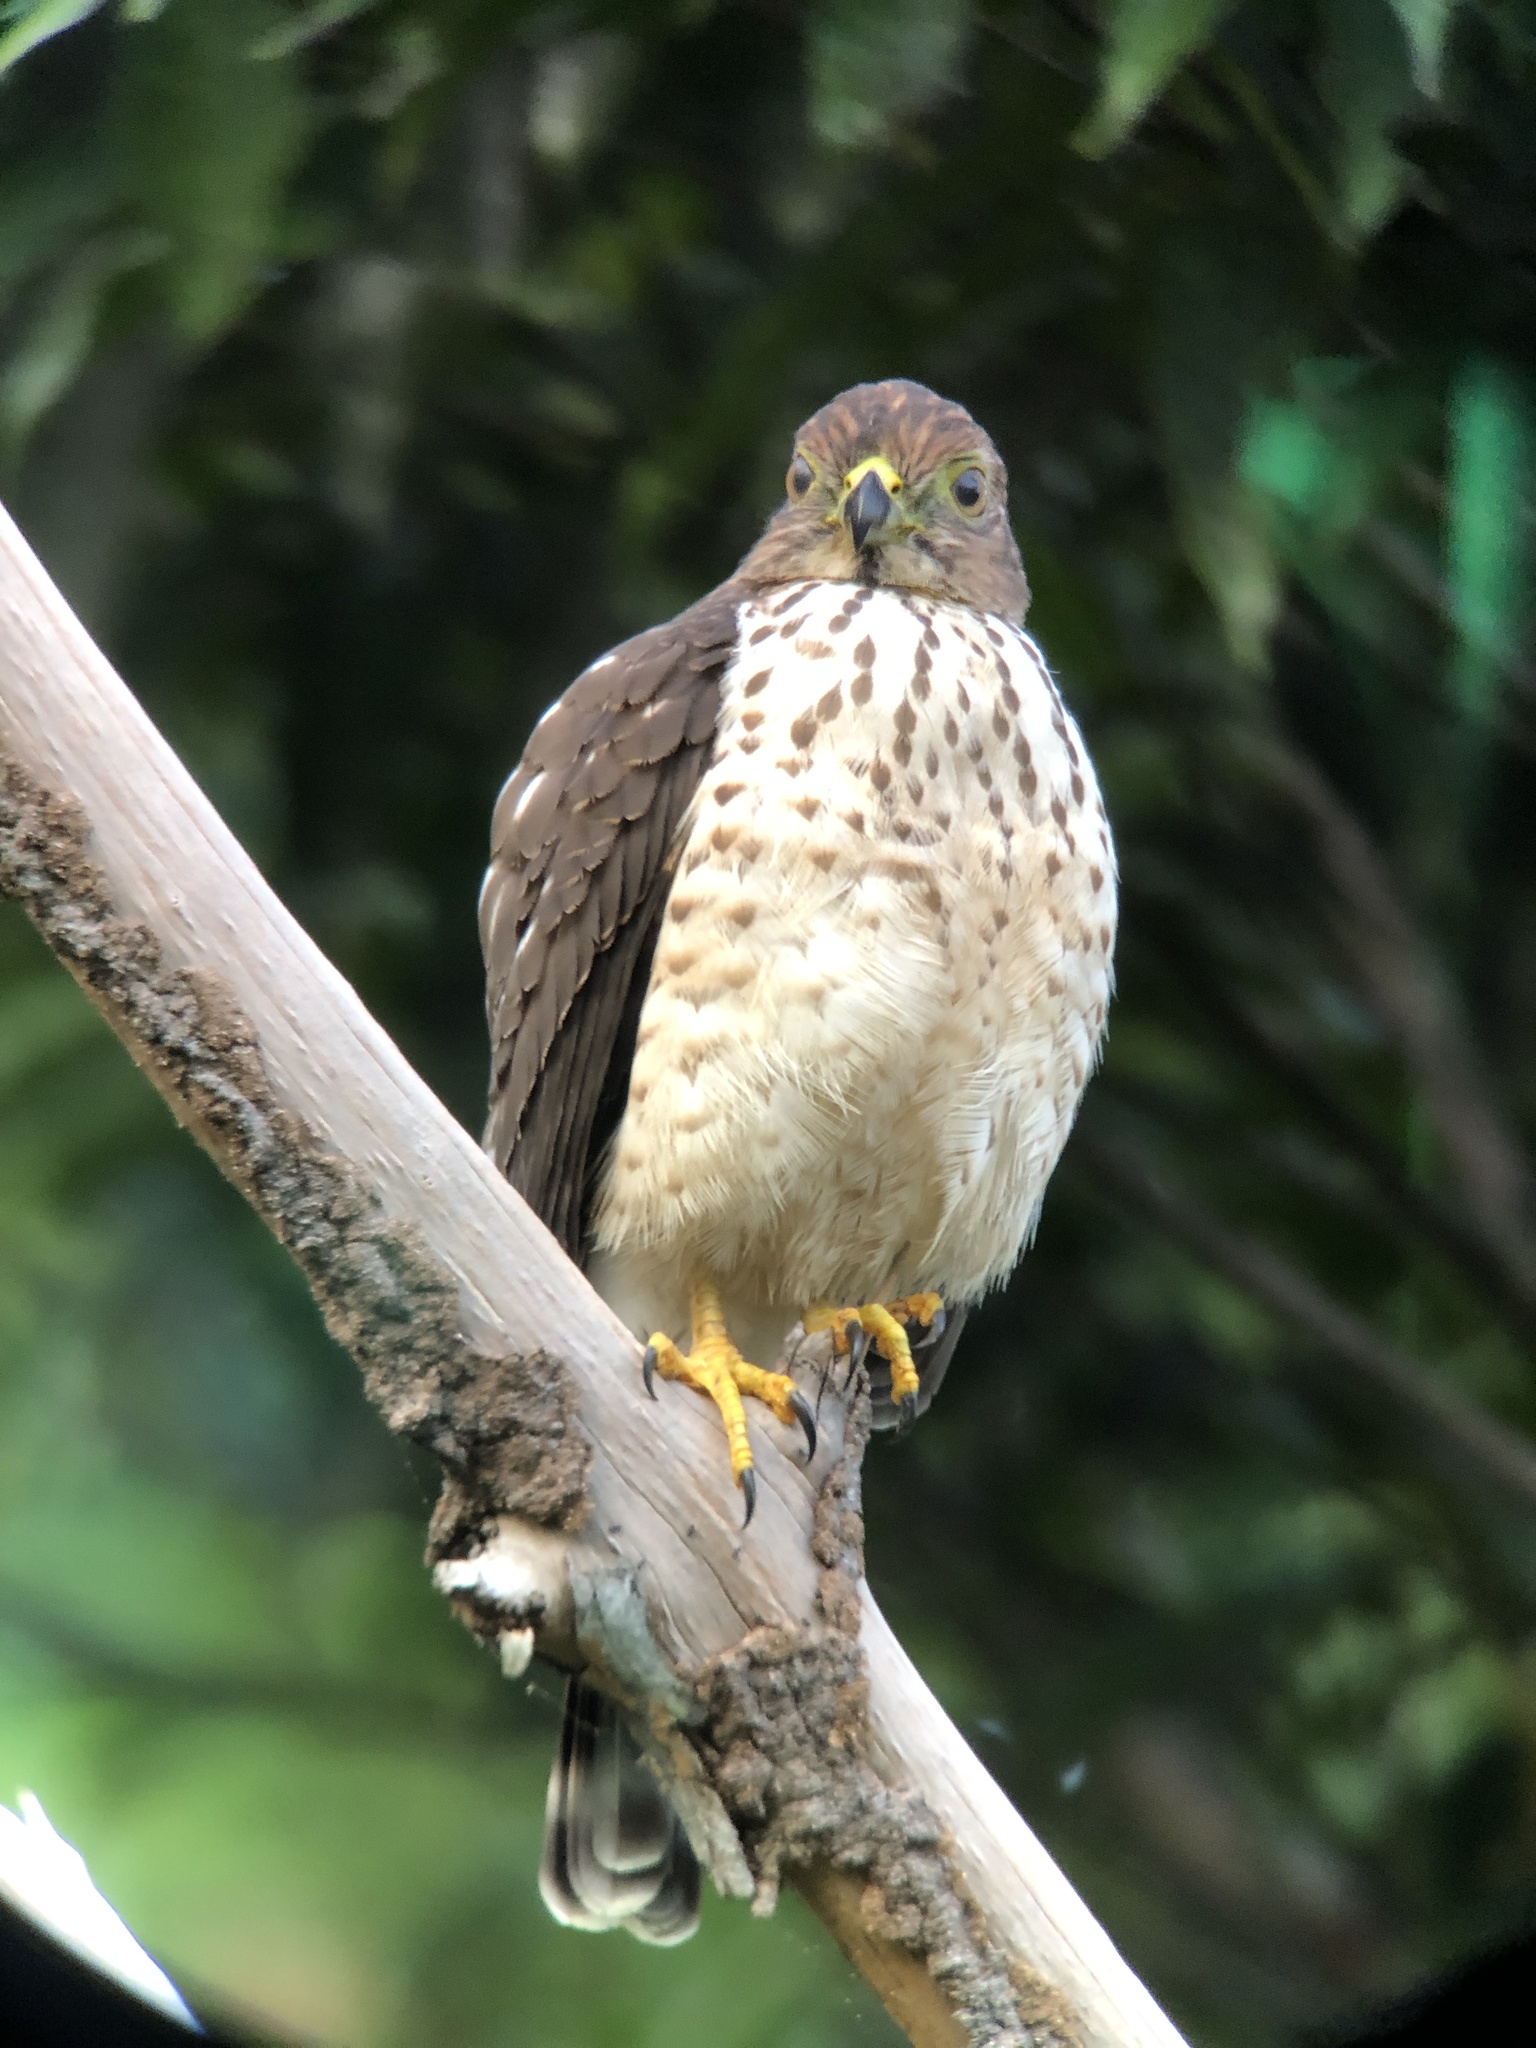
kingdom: Animalia
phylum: Chordata
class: Aves
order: Accipitriformes
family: Accipitridae
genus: Harpagus
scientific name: Harpagus bidentatus
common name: Double-toothed kite
